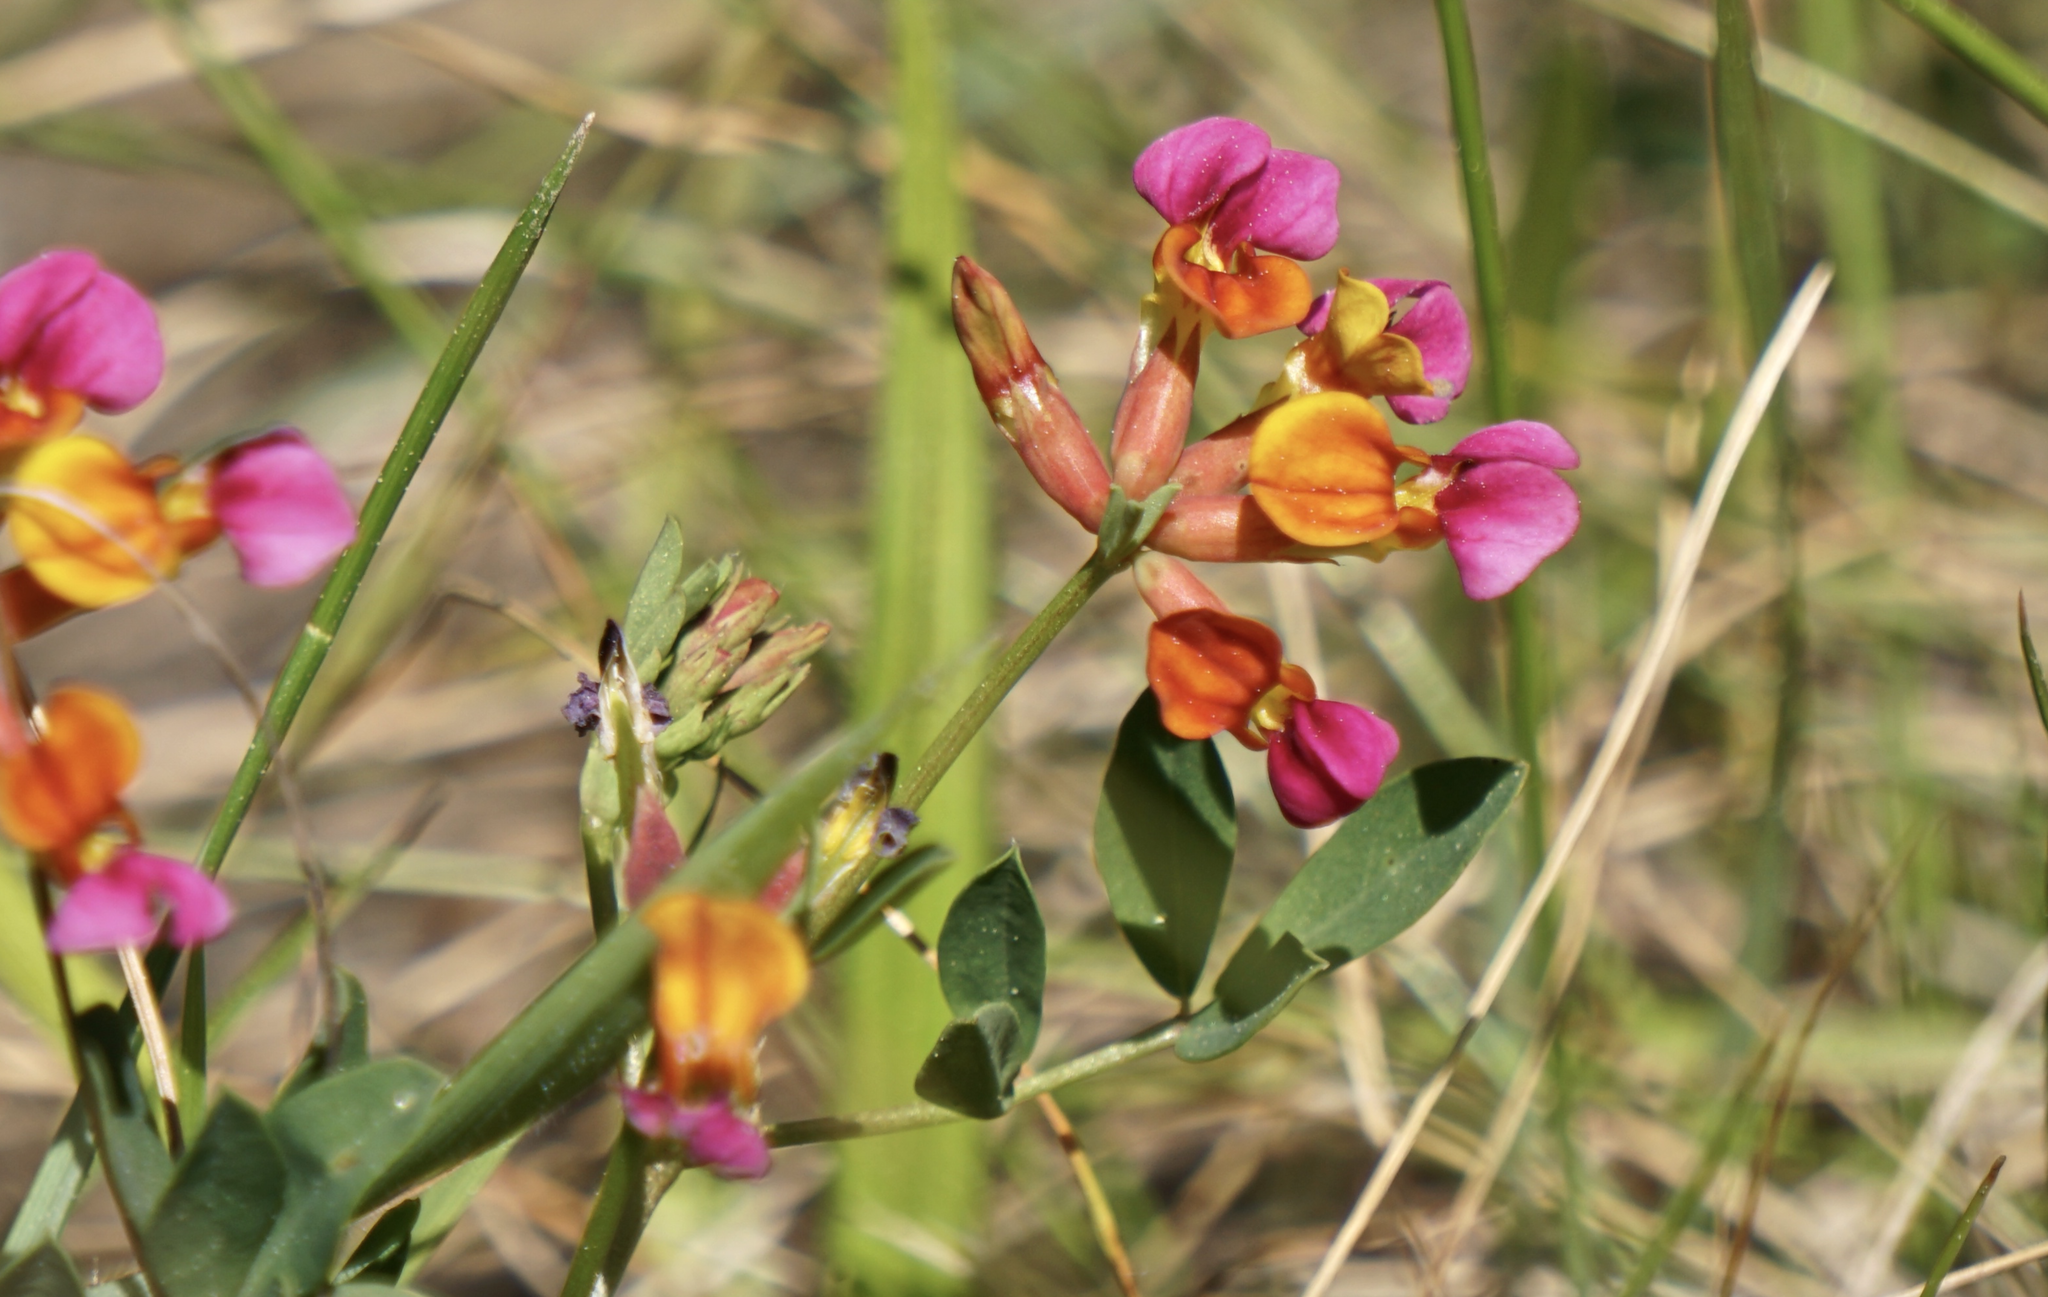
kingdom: Plantae
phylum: Tracheophyta
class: Magnoliopsida
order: Fabales
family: Fabaceae
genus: Hosackia
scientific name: Hosackia gracilis
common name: Seaside bird's-foot lotus
